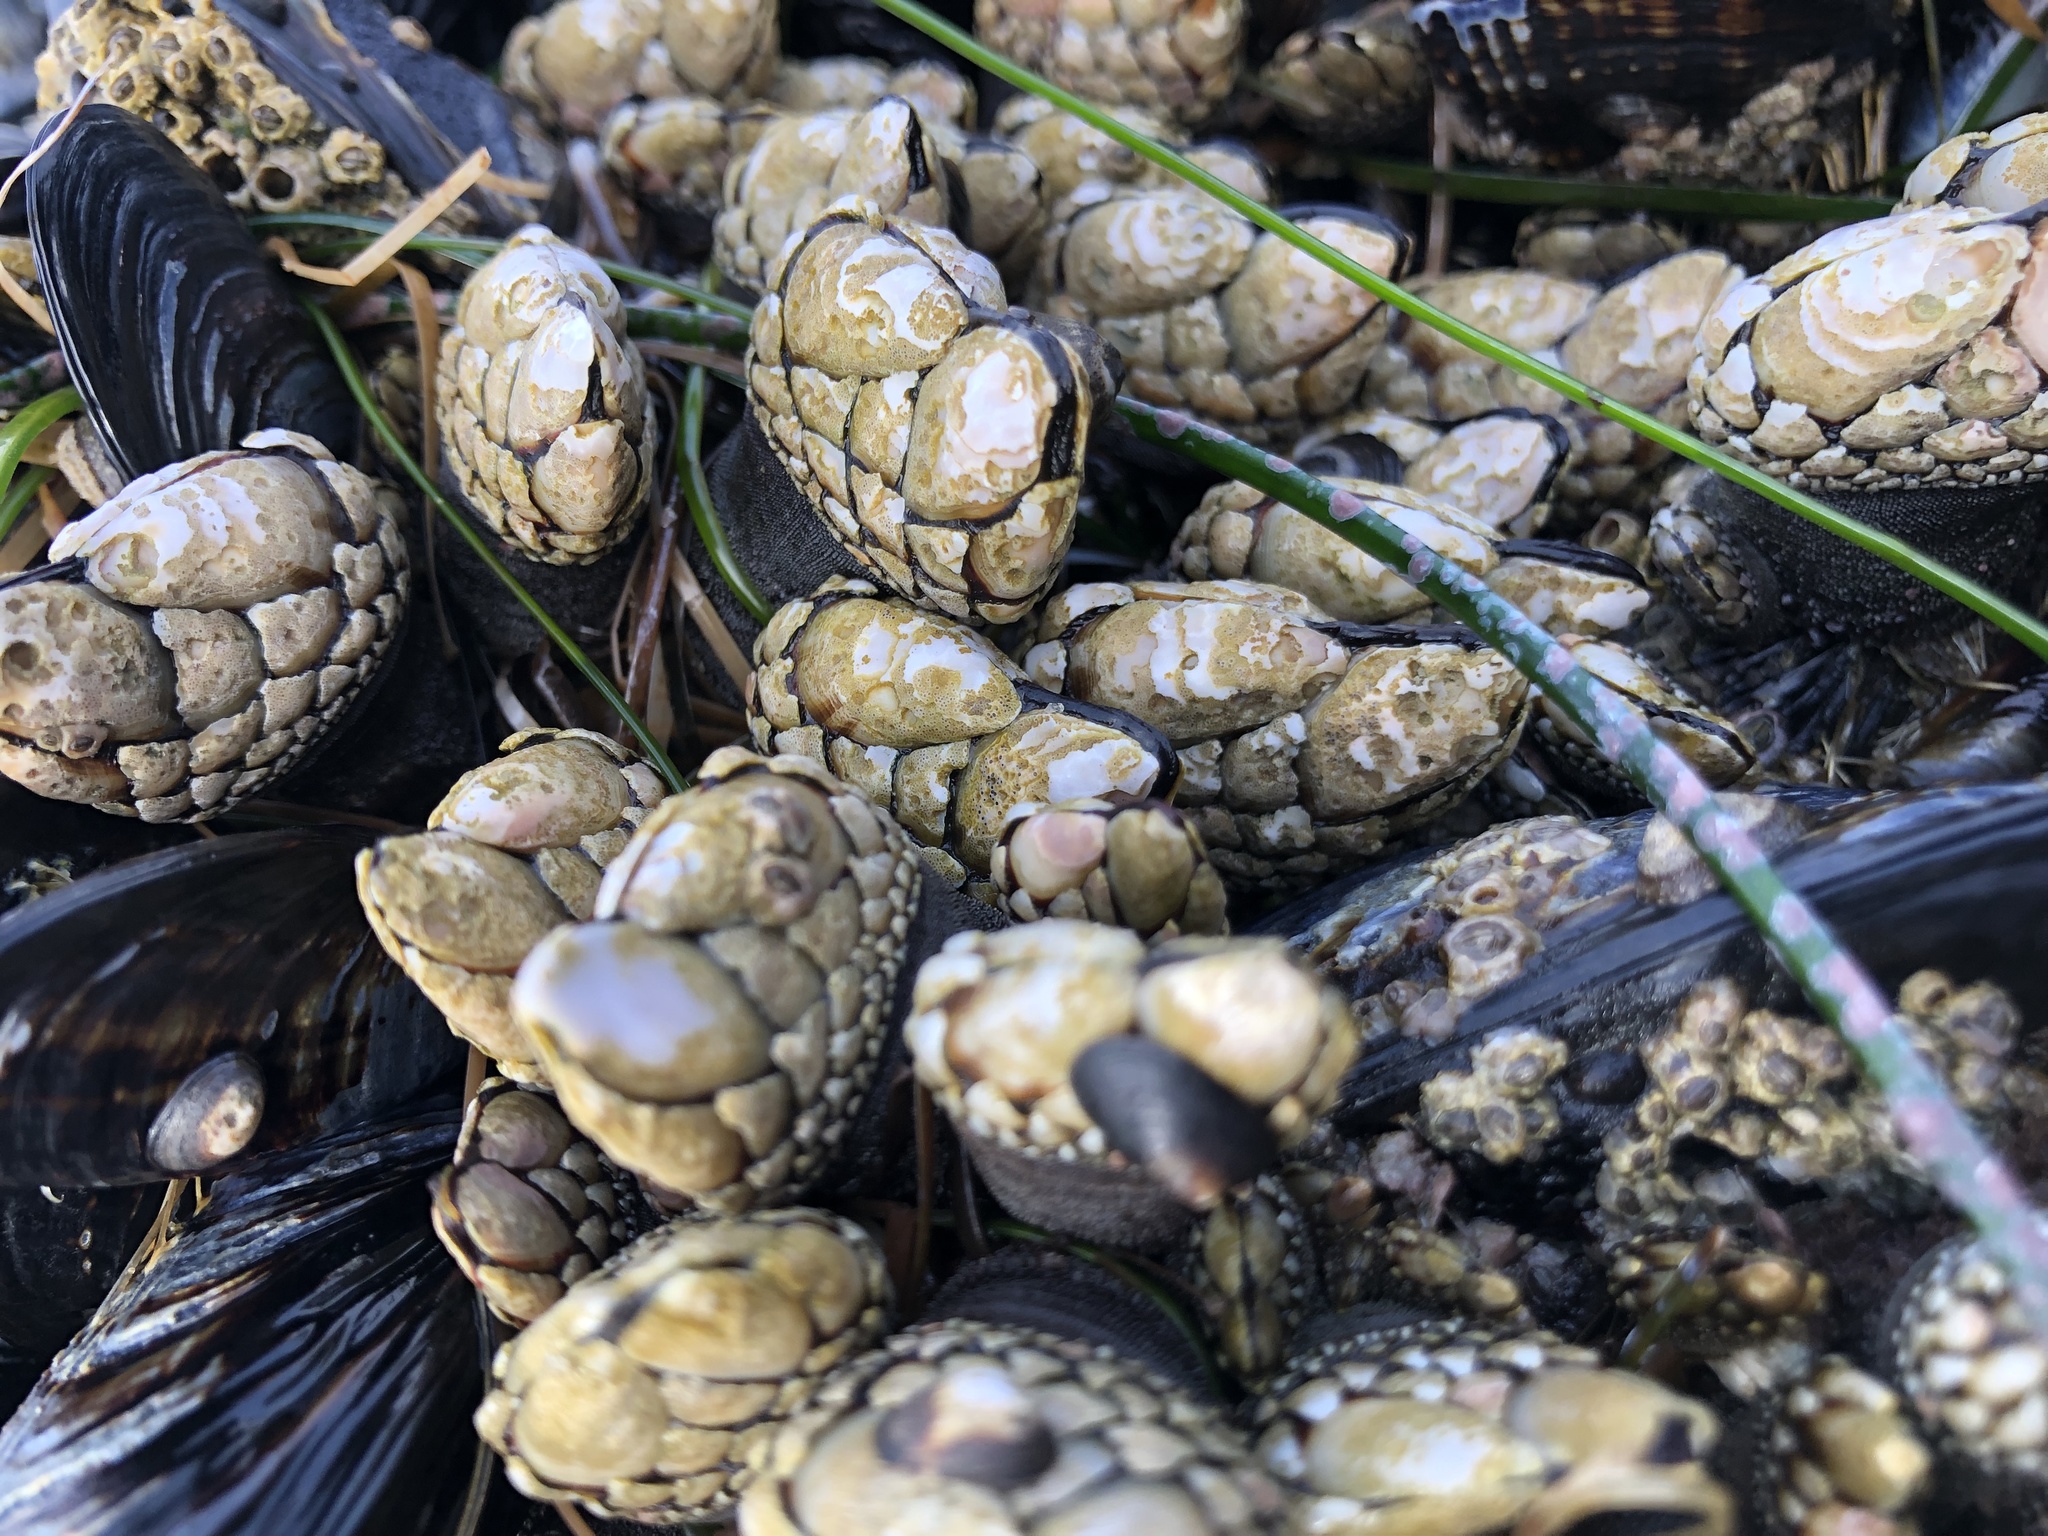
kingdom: Animalia
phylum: Arthropoda
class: Maxillopoda
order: Pedunculata
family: Pollicipedidae
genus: Pollicipes
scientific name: Pollicipes polymerus
